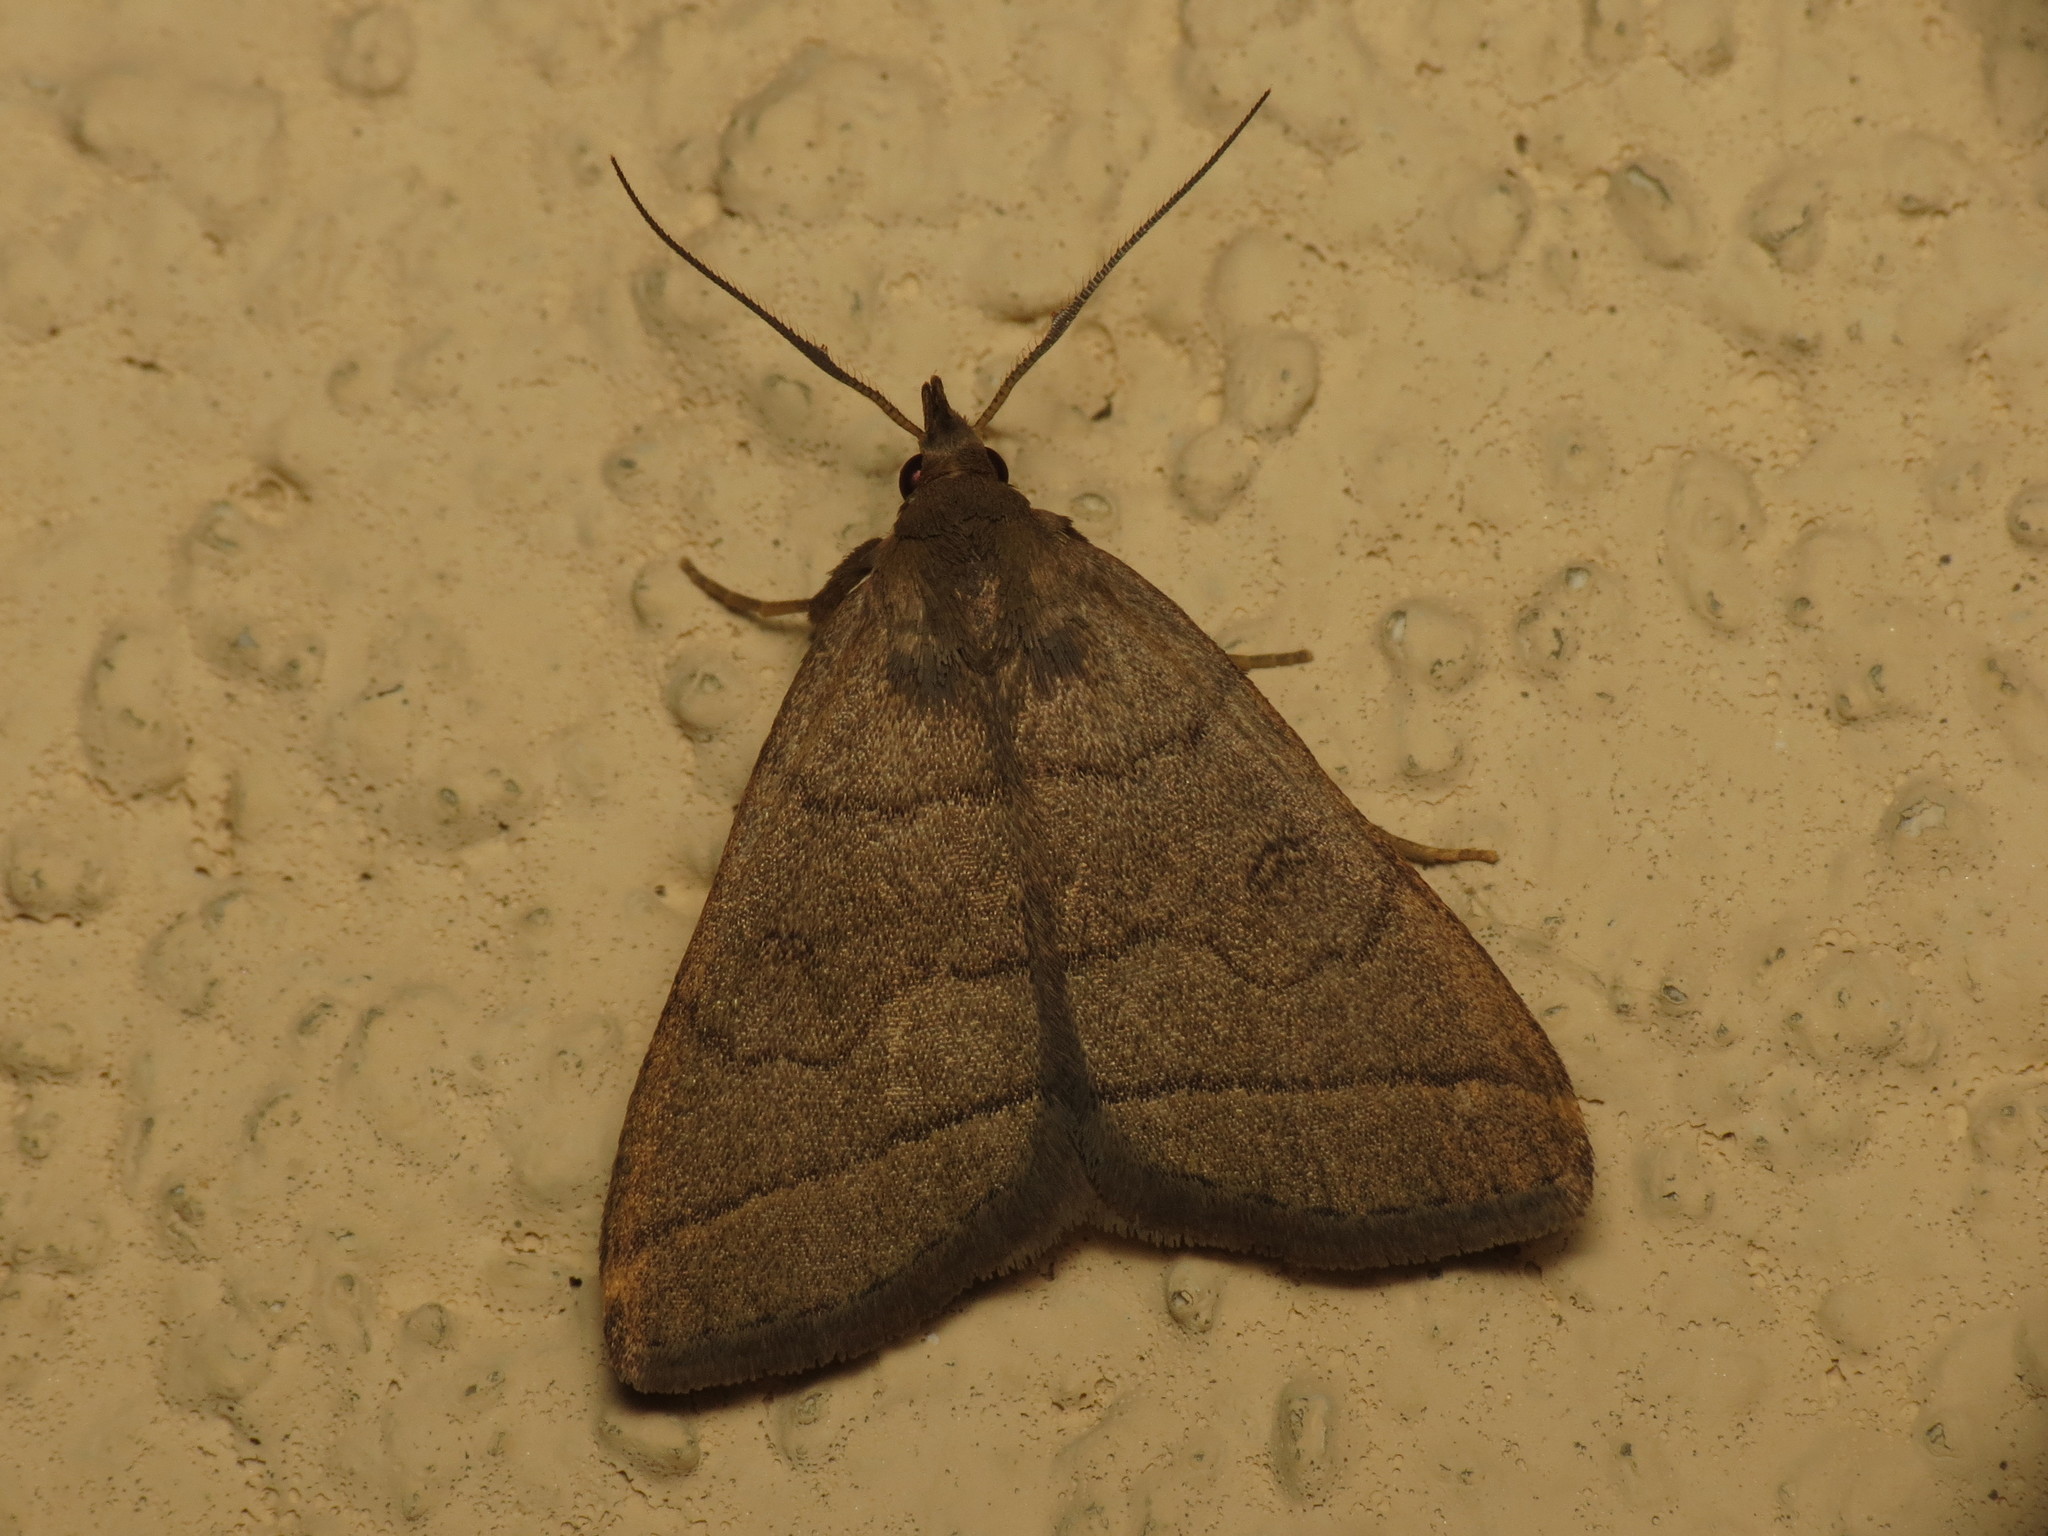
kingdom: Animalia
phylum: Arthropoda
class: Insecta
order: Lepidoptera
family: Erebidae
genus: Herminia
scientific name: Herminia tarsipennalis
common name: Fan-foot
